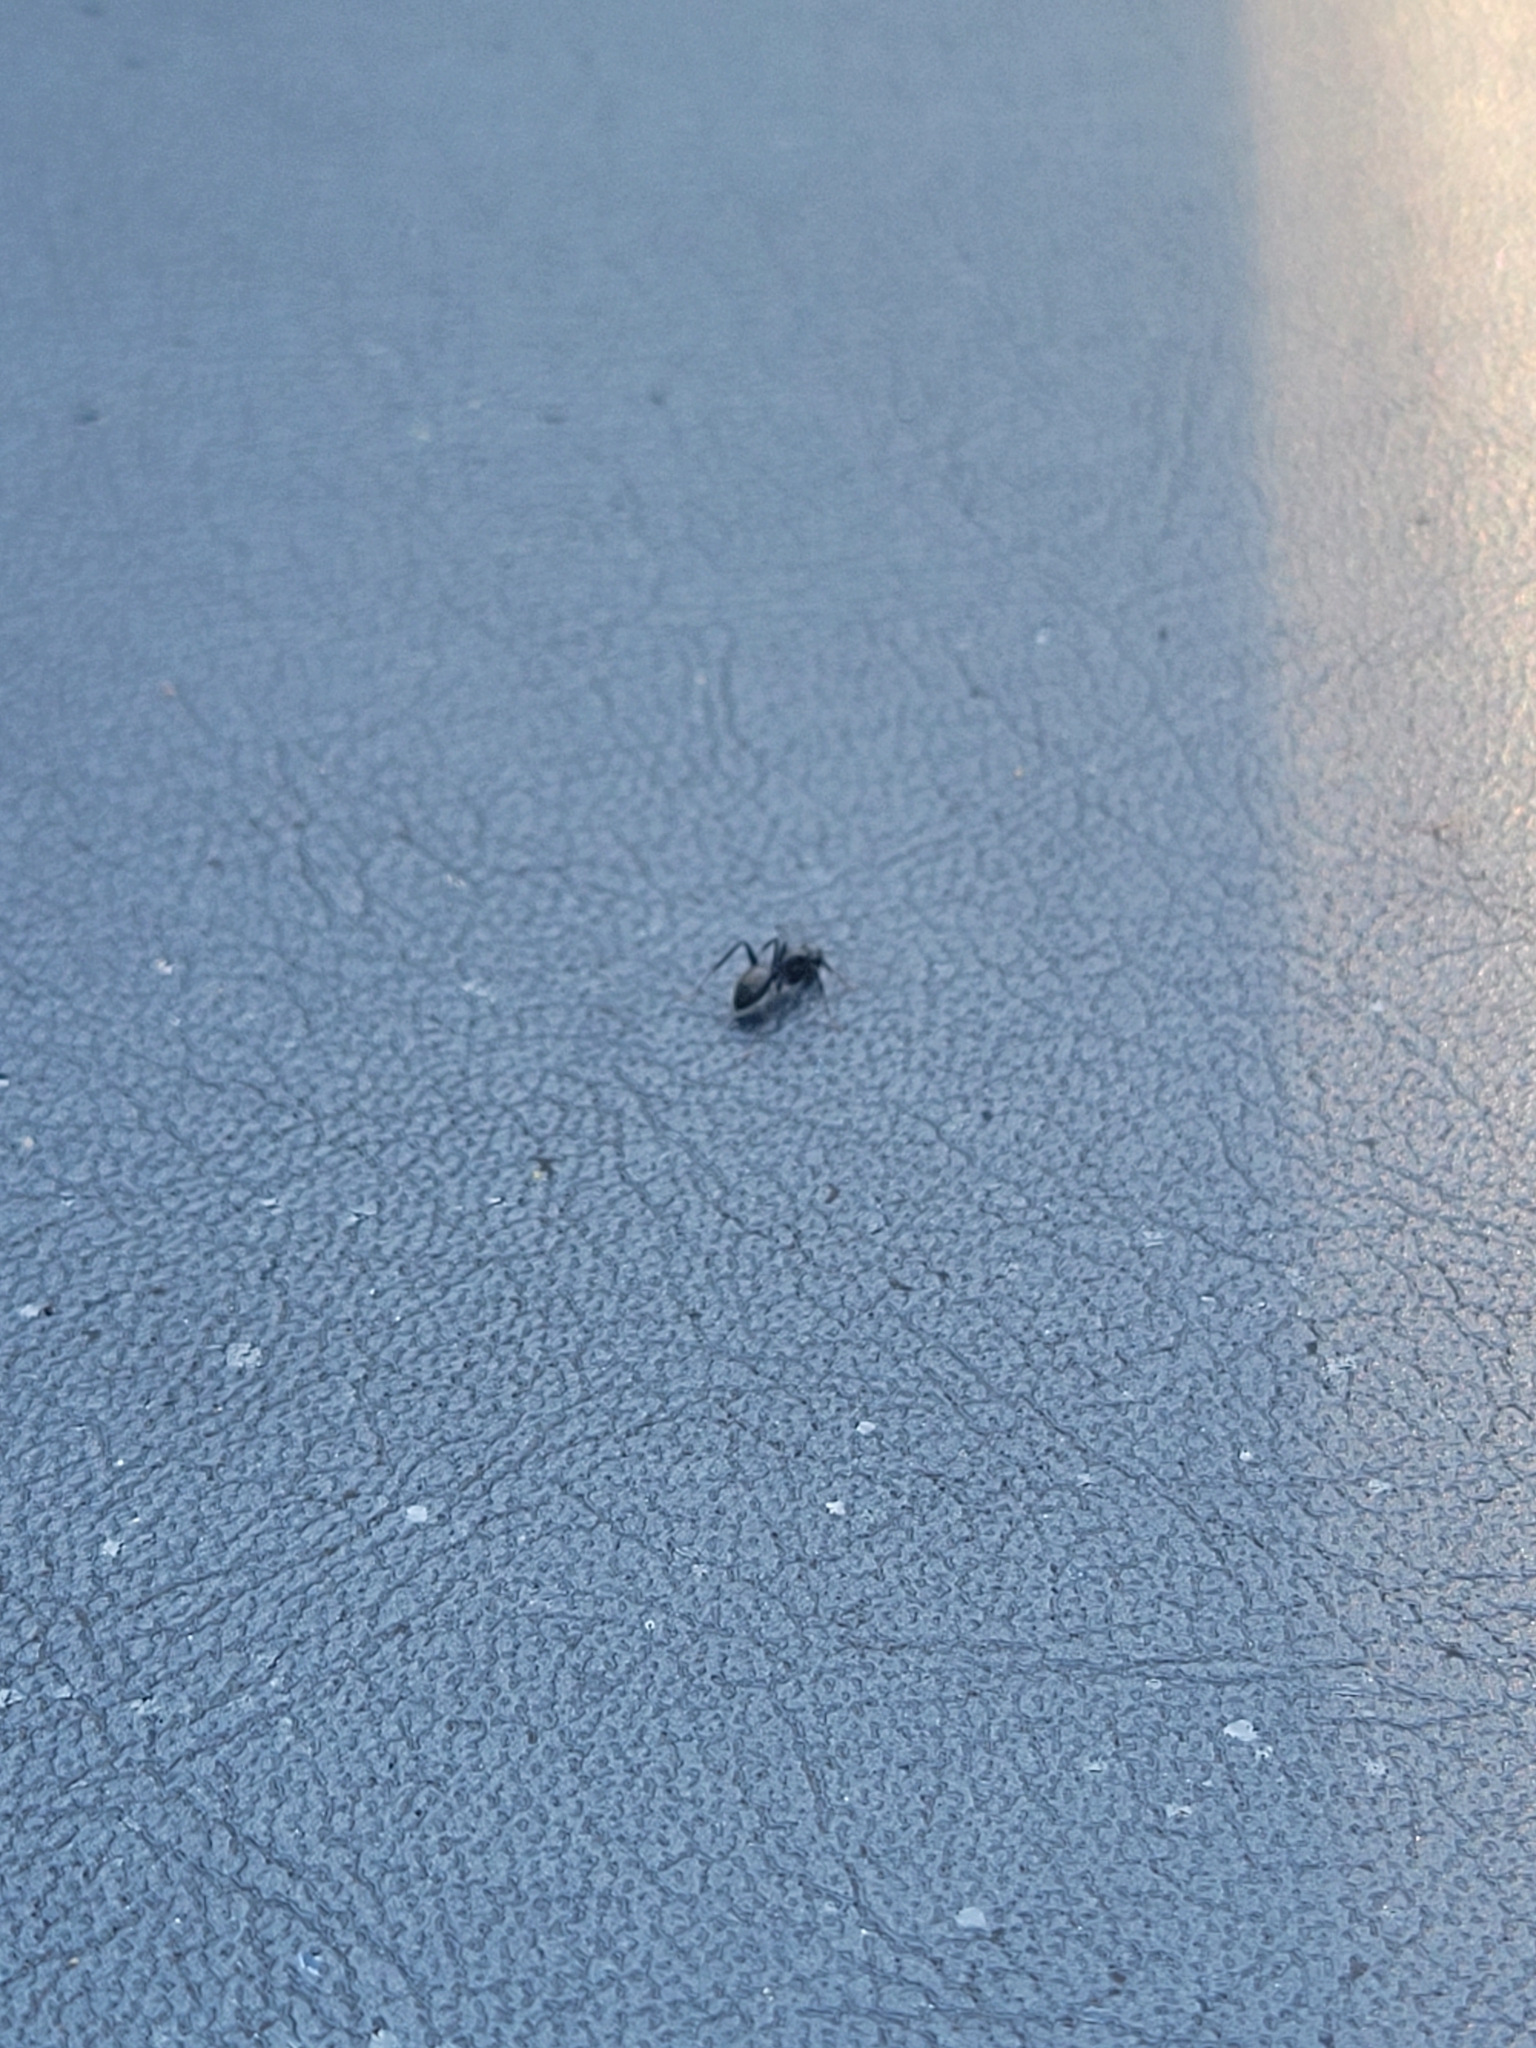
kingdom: Animalia
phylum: Arthropoda
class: Insecta
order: Hymenoptera
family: Formicidae
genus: Camponotus
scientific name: Camponotus pennsylvanicus
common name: Black carpenter ant
